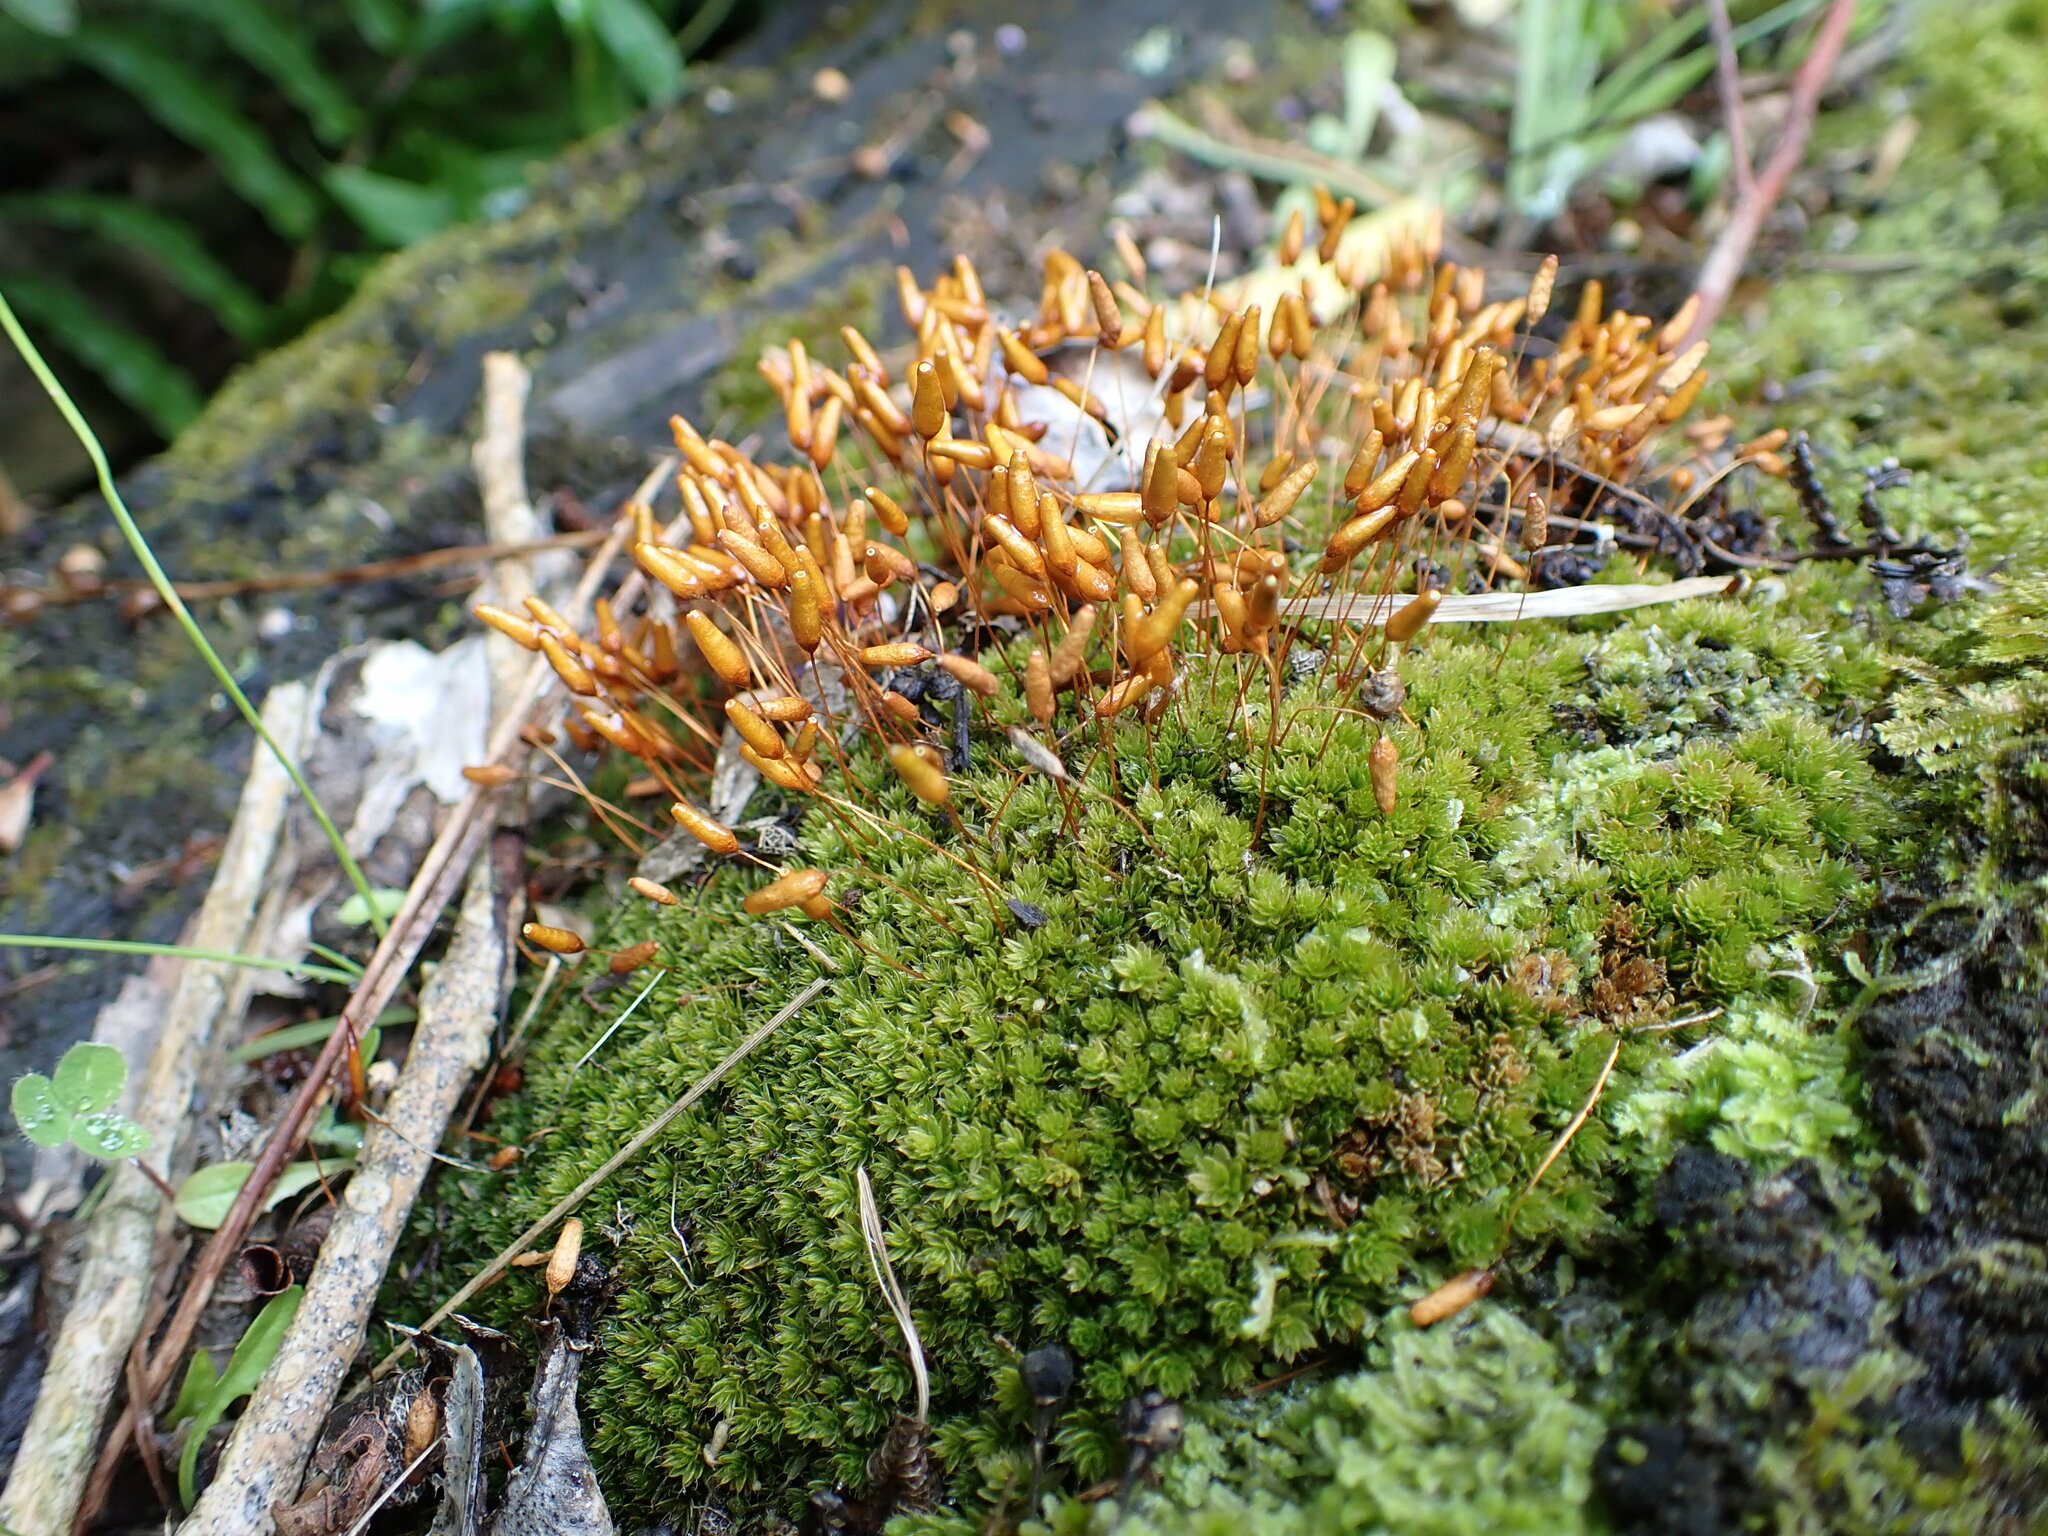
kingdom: Plantae
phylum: Bryophyta
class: Bryopsida
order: Bryales
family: Leptostomataceae
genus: Leptostomum
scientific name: Leptostomum macrocarpon
